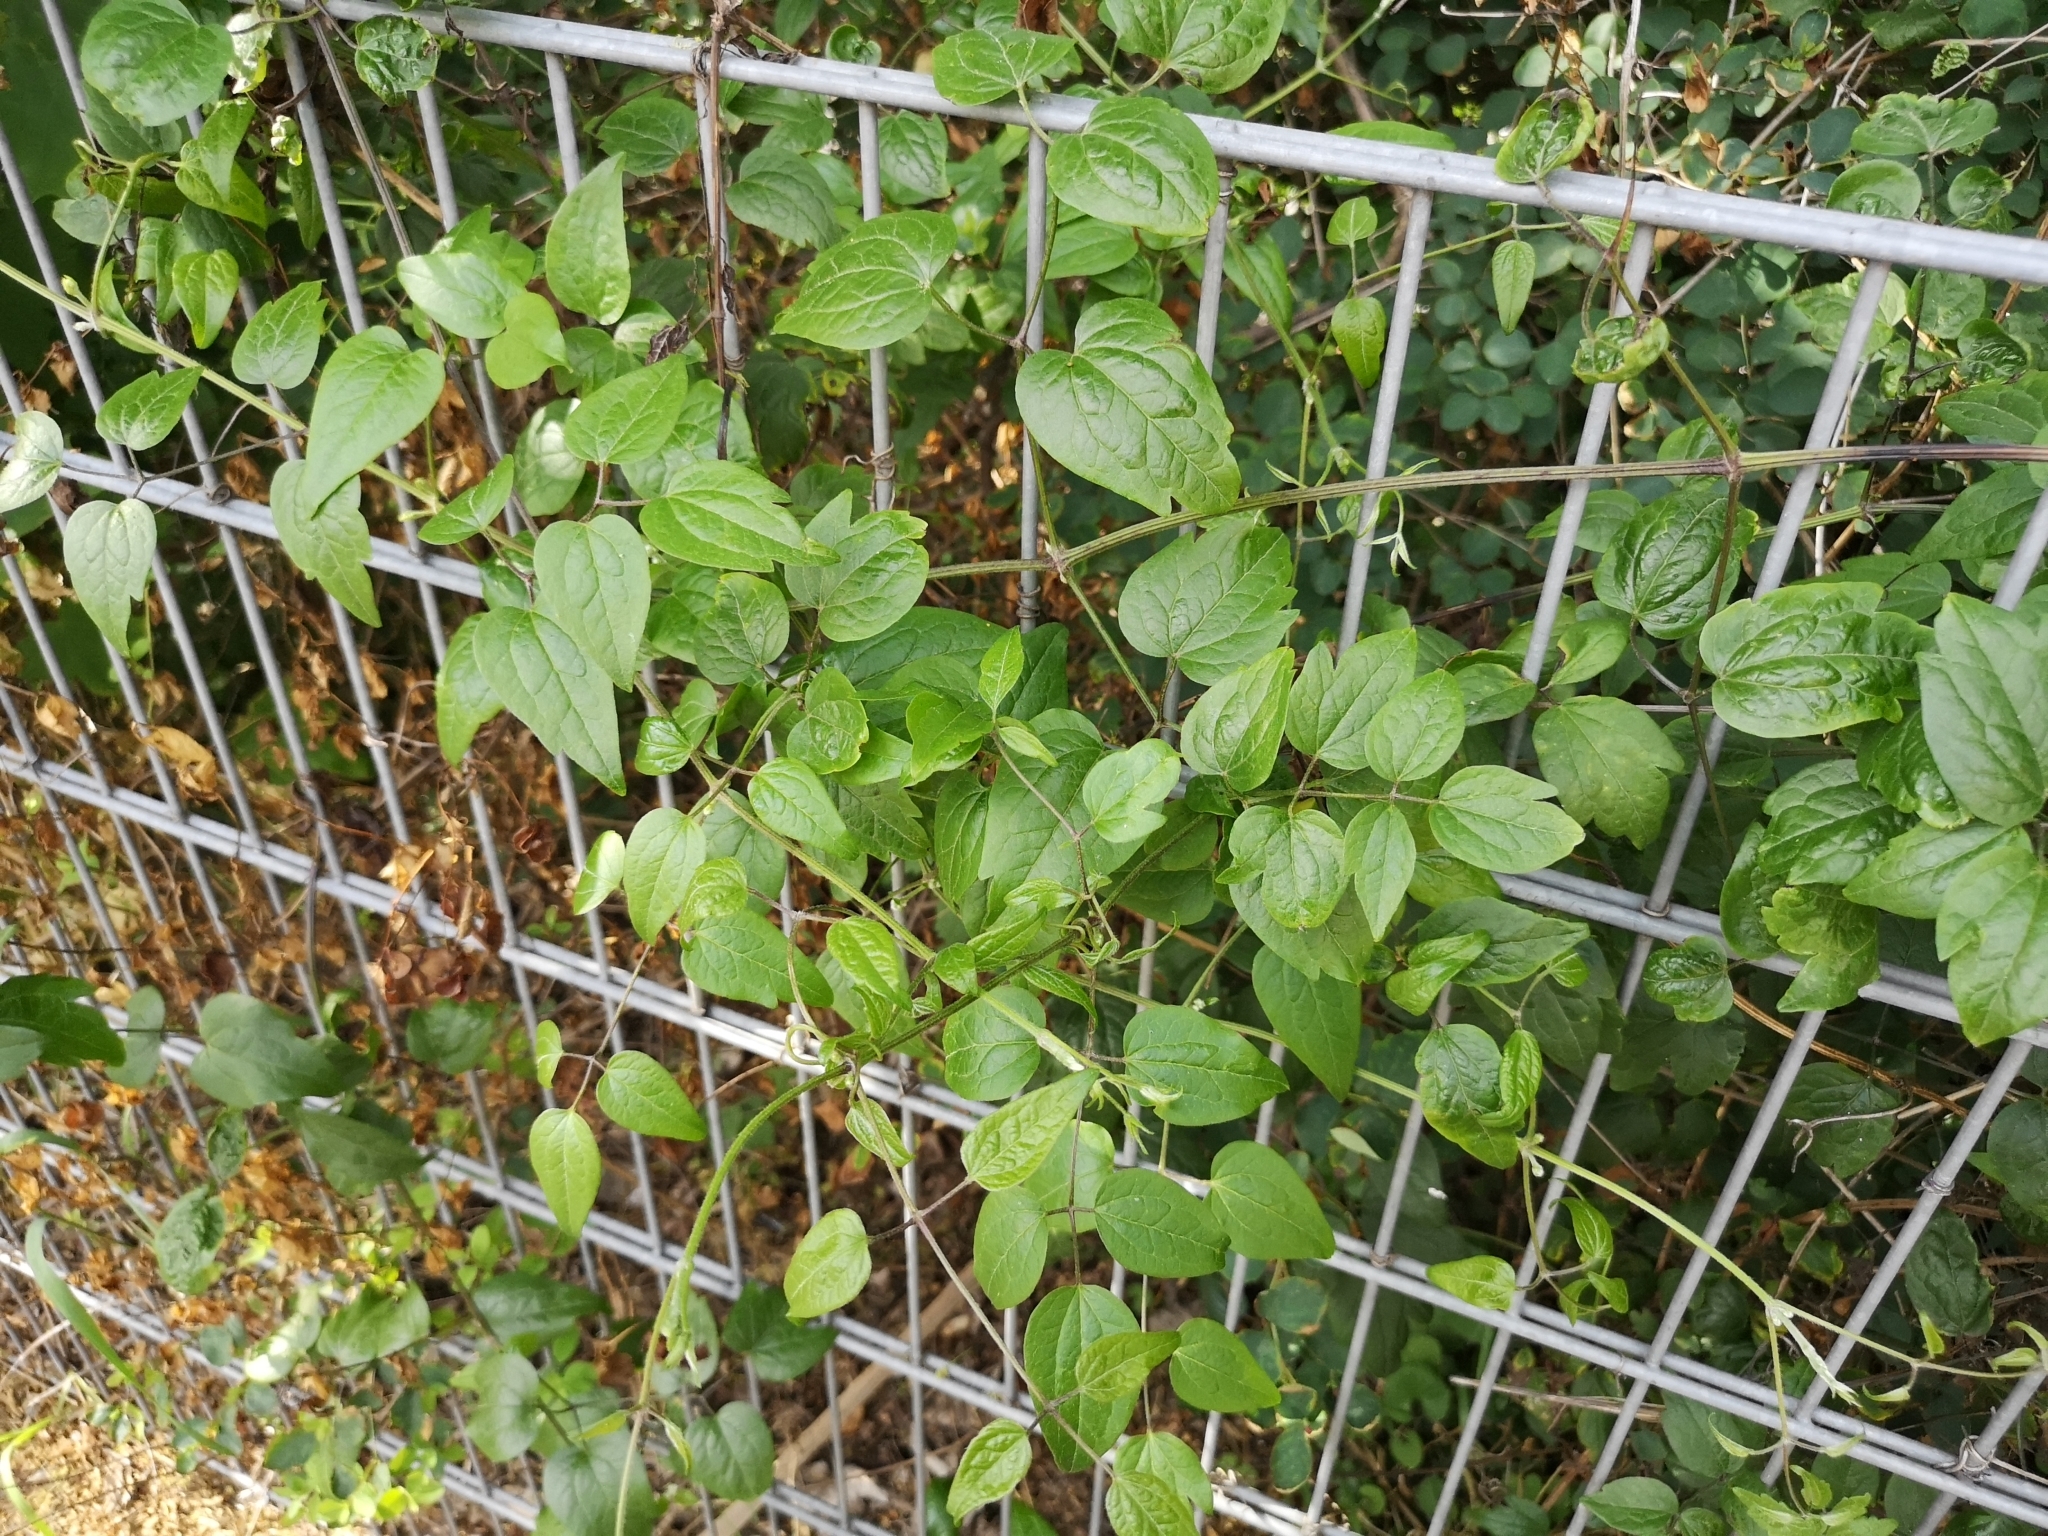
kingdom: Plantae
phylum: Tracheophyta
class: Magnoliopsida
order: Ranunculales
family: Ranunculaceae
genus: Clematis
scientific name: Clematis vitalba
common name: Evergreen clematis
